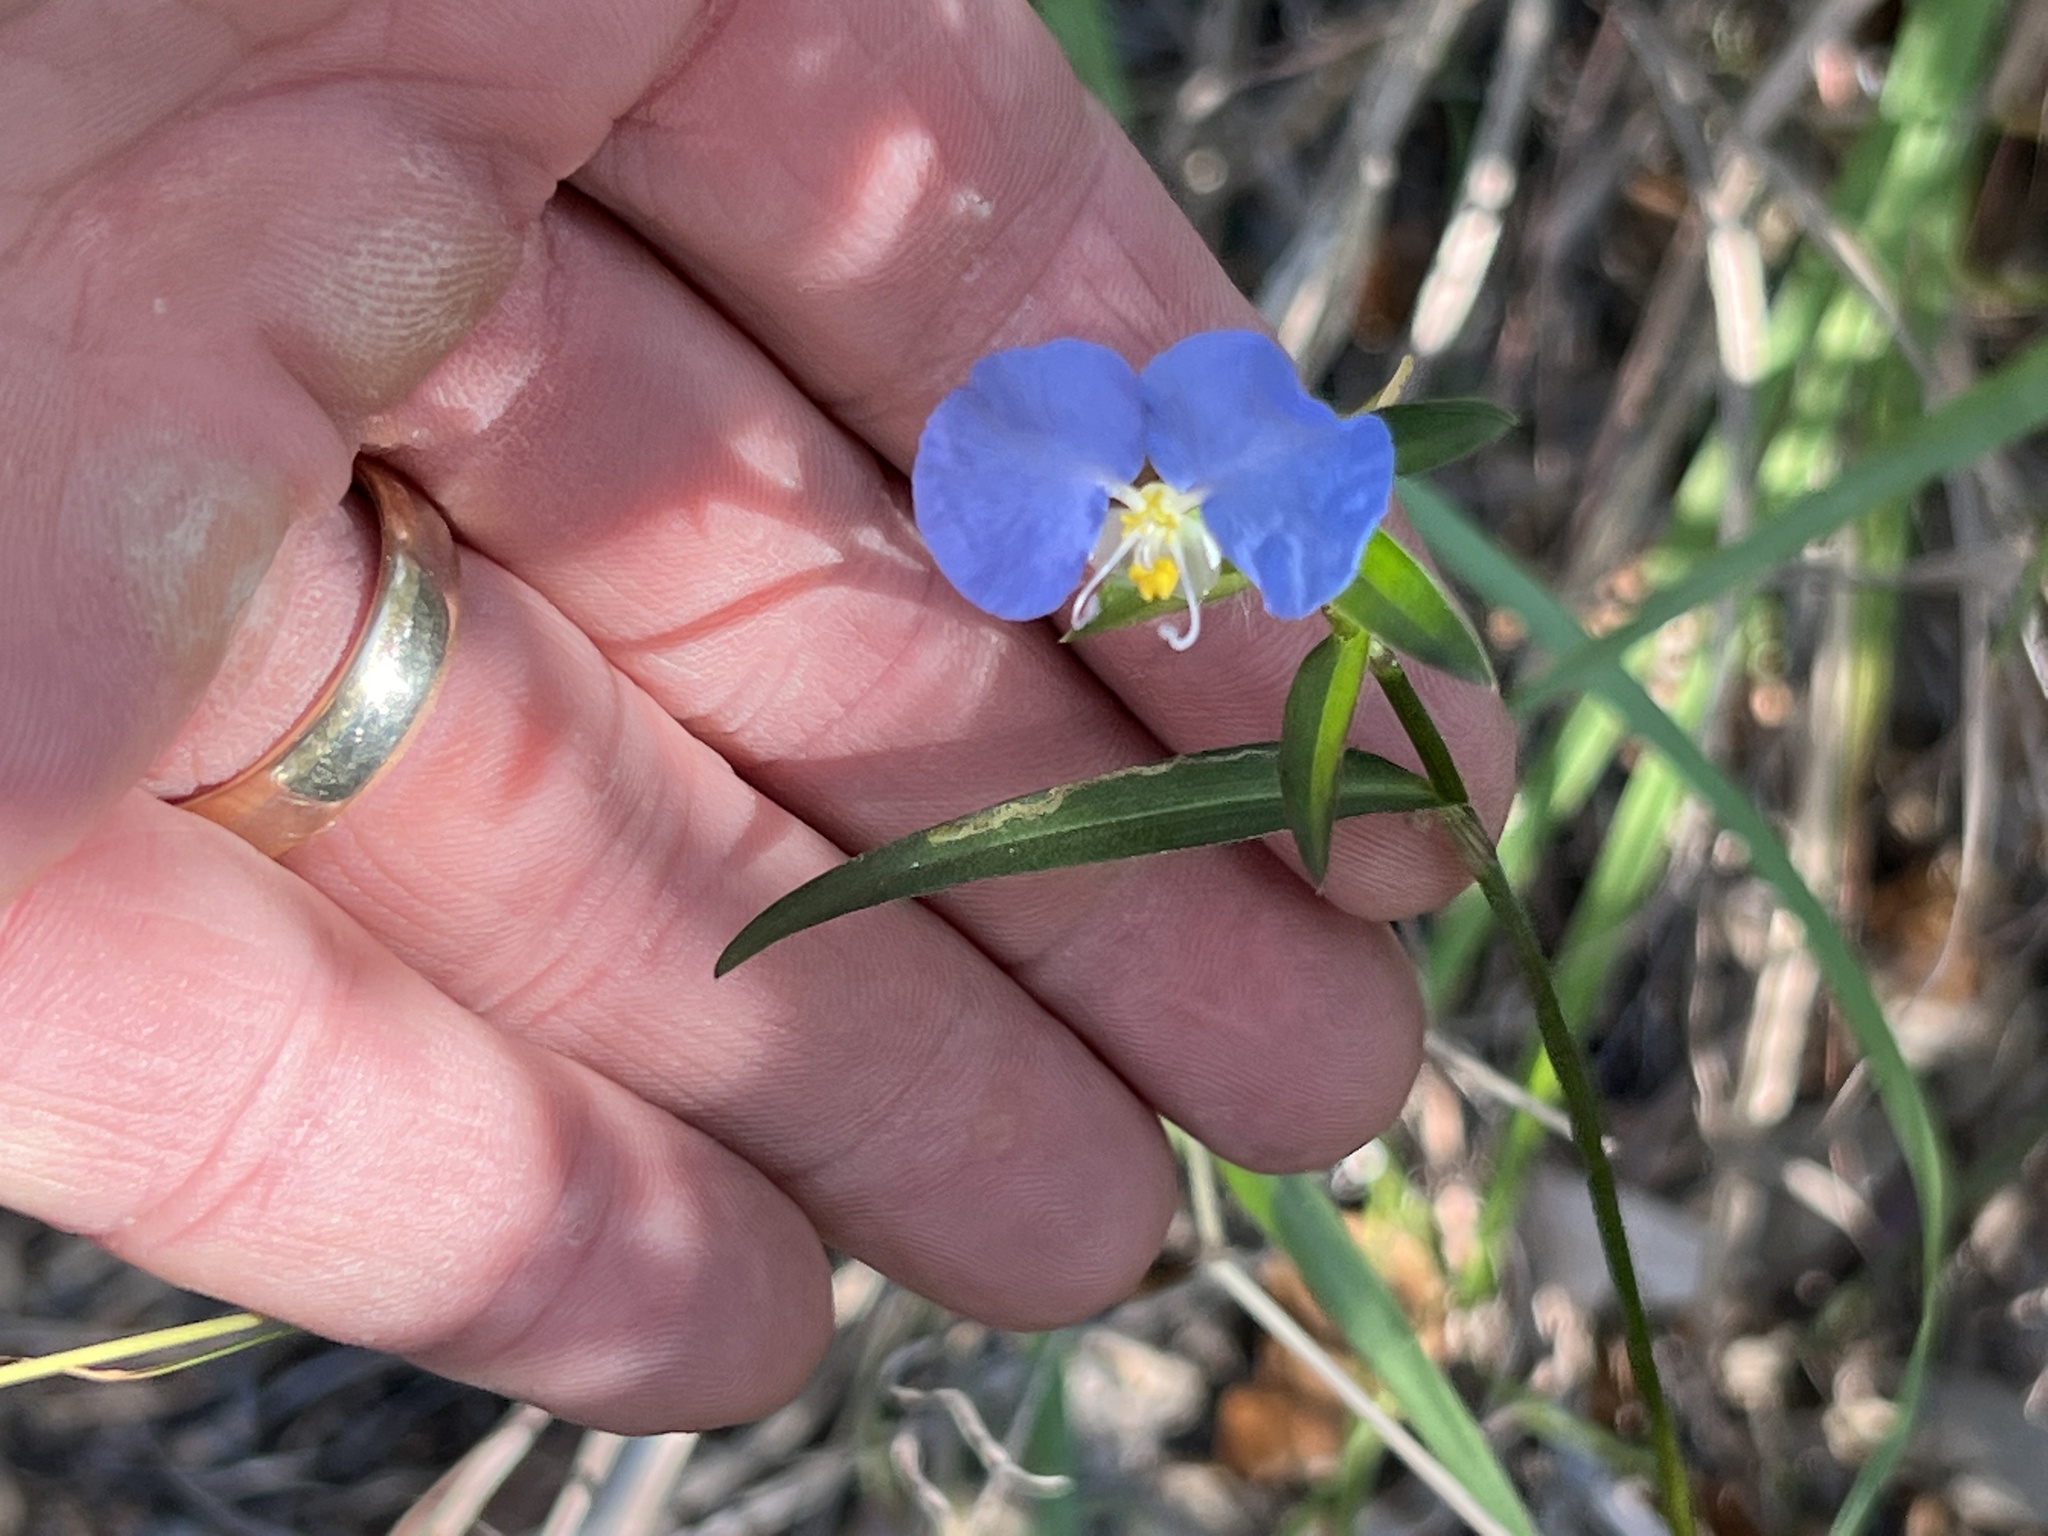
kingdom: Plantae
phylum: Tracheophyta
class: Liliopsida
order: Commelinales
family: Commelinaceae
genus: Commelina
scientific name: Commelina erecta
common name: Blousel blommetjie
